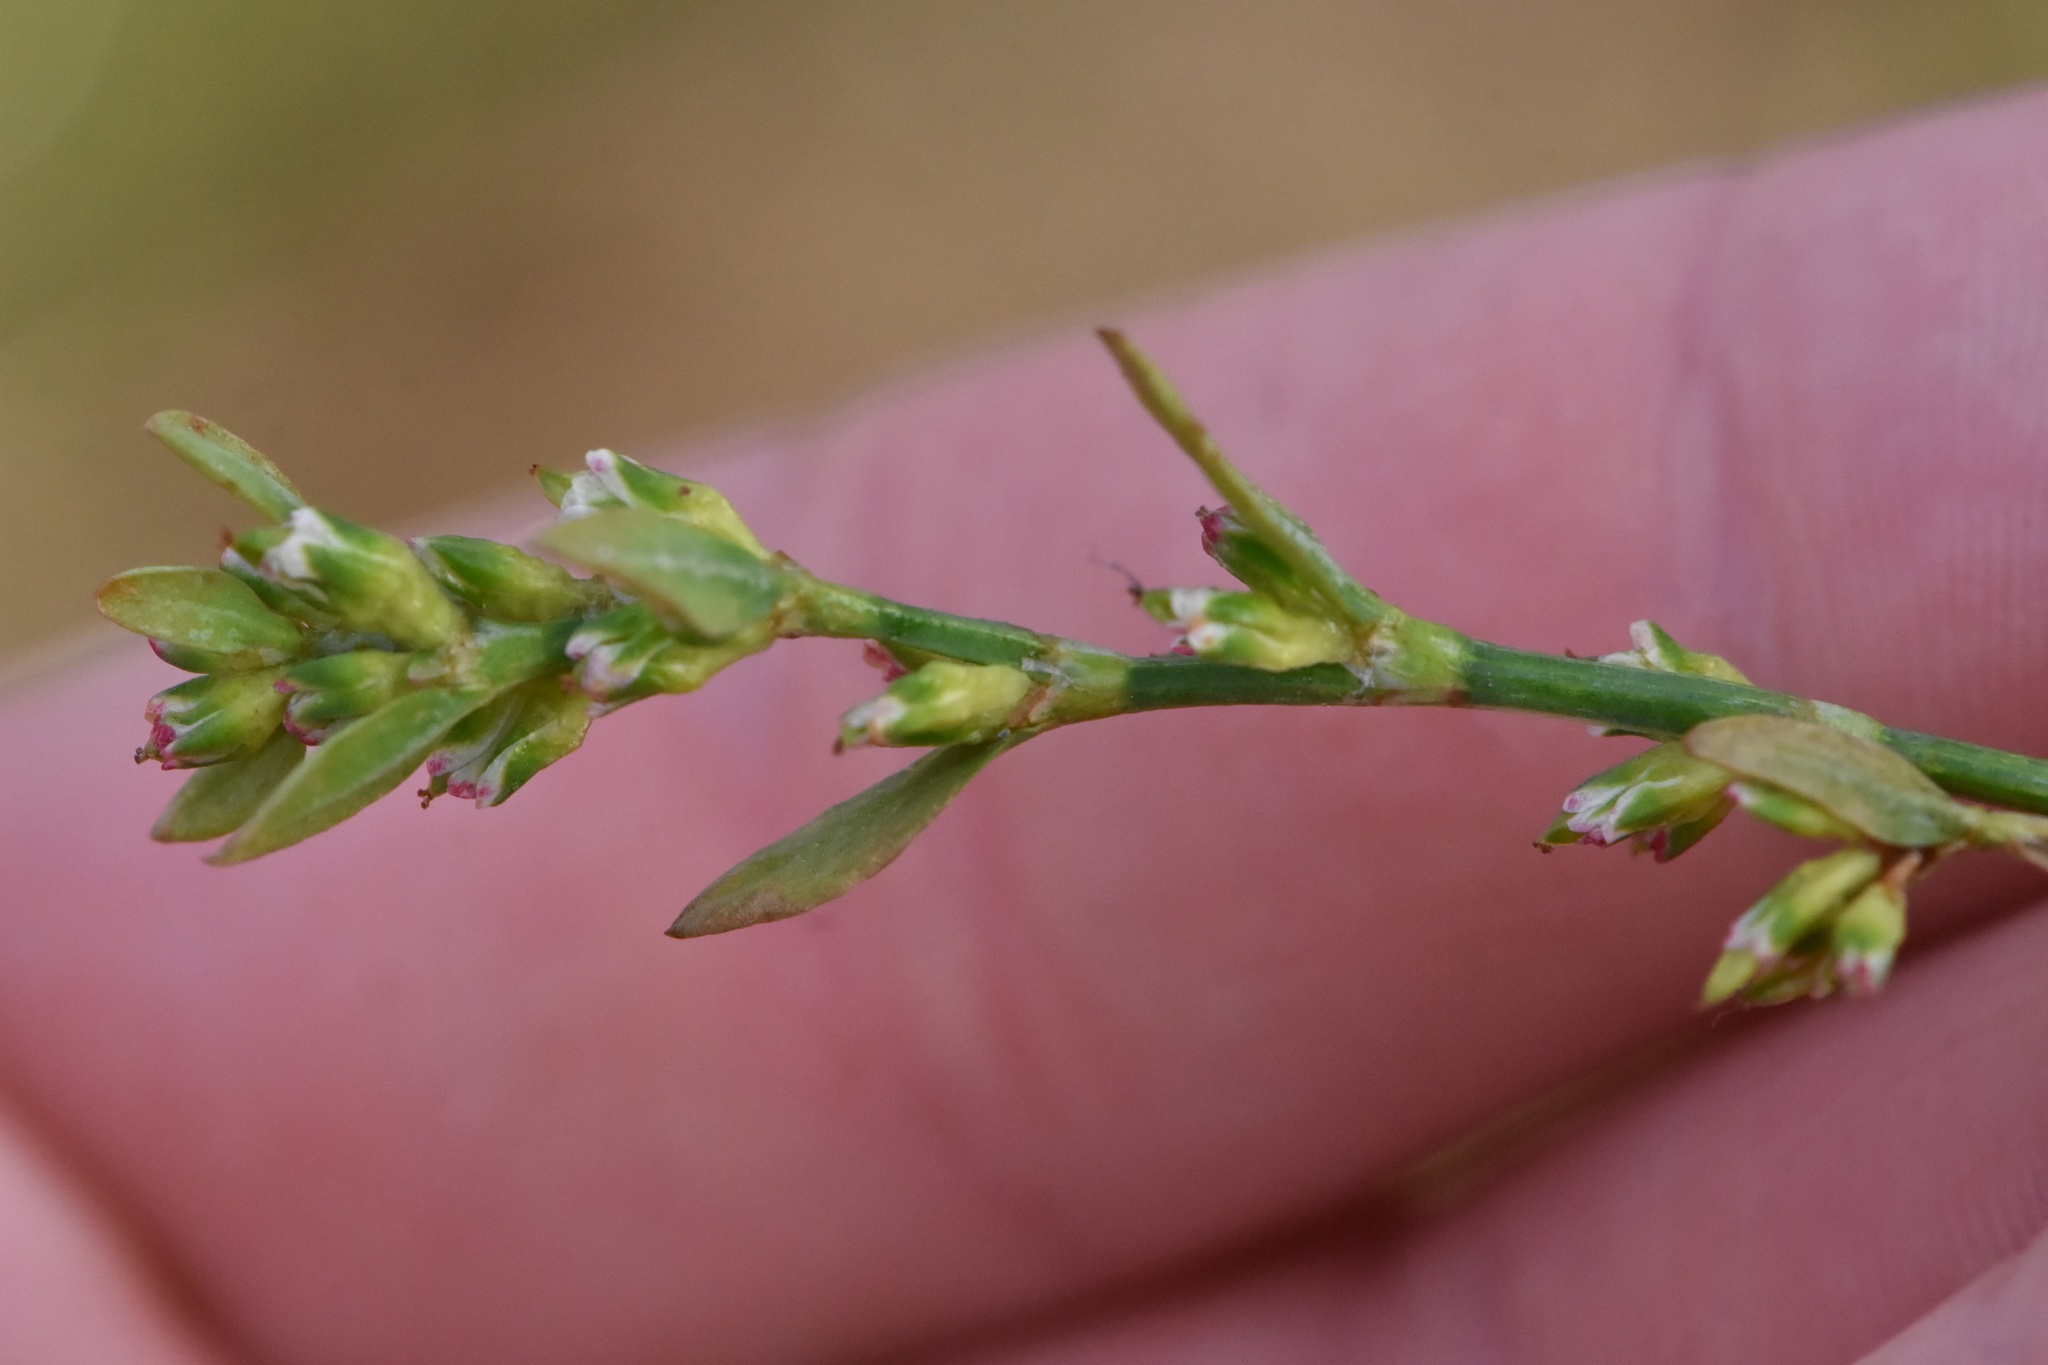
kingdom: Plantae
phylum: Tracheophyta
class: Magnoliopsida
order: Caryophyllales
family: Polygonaceae
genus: Polygonum
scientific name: Polygonum
